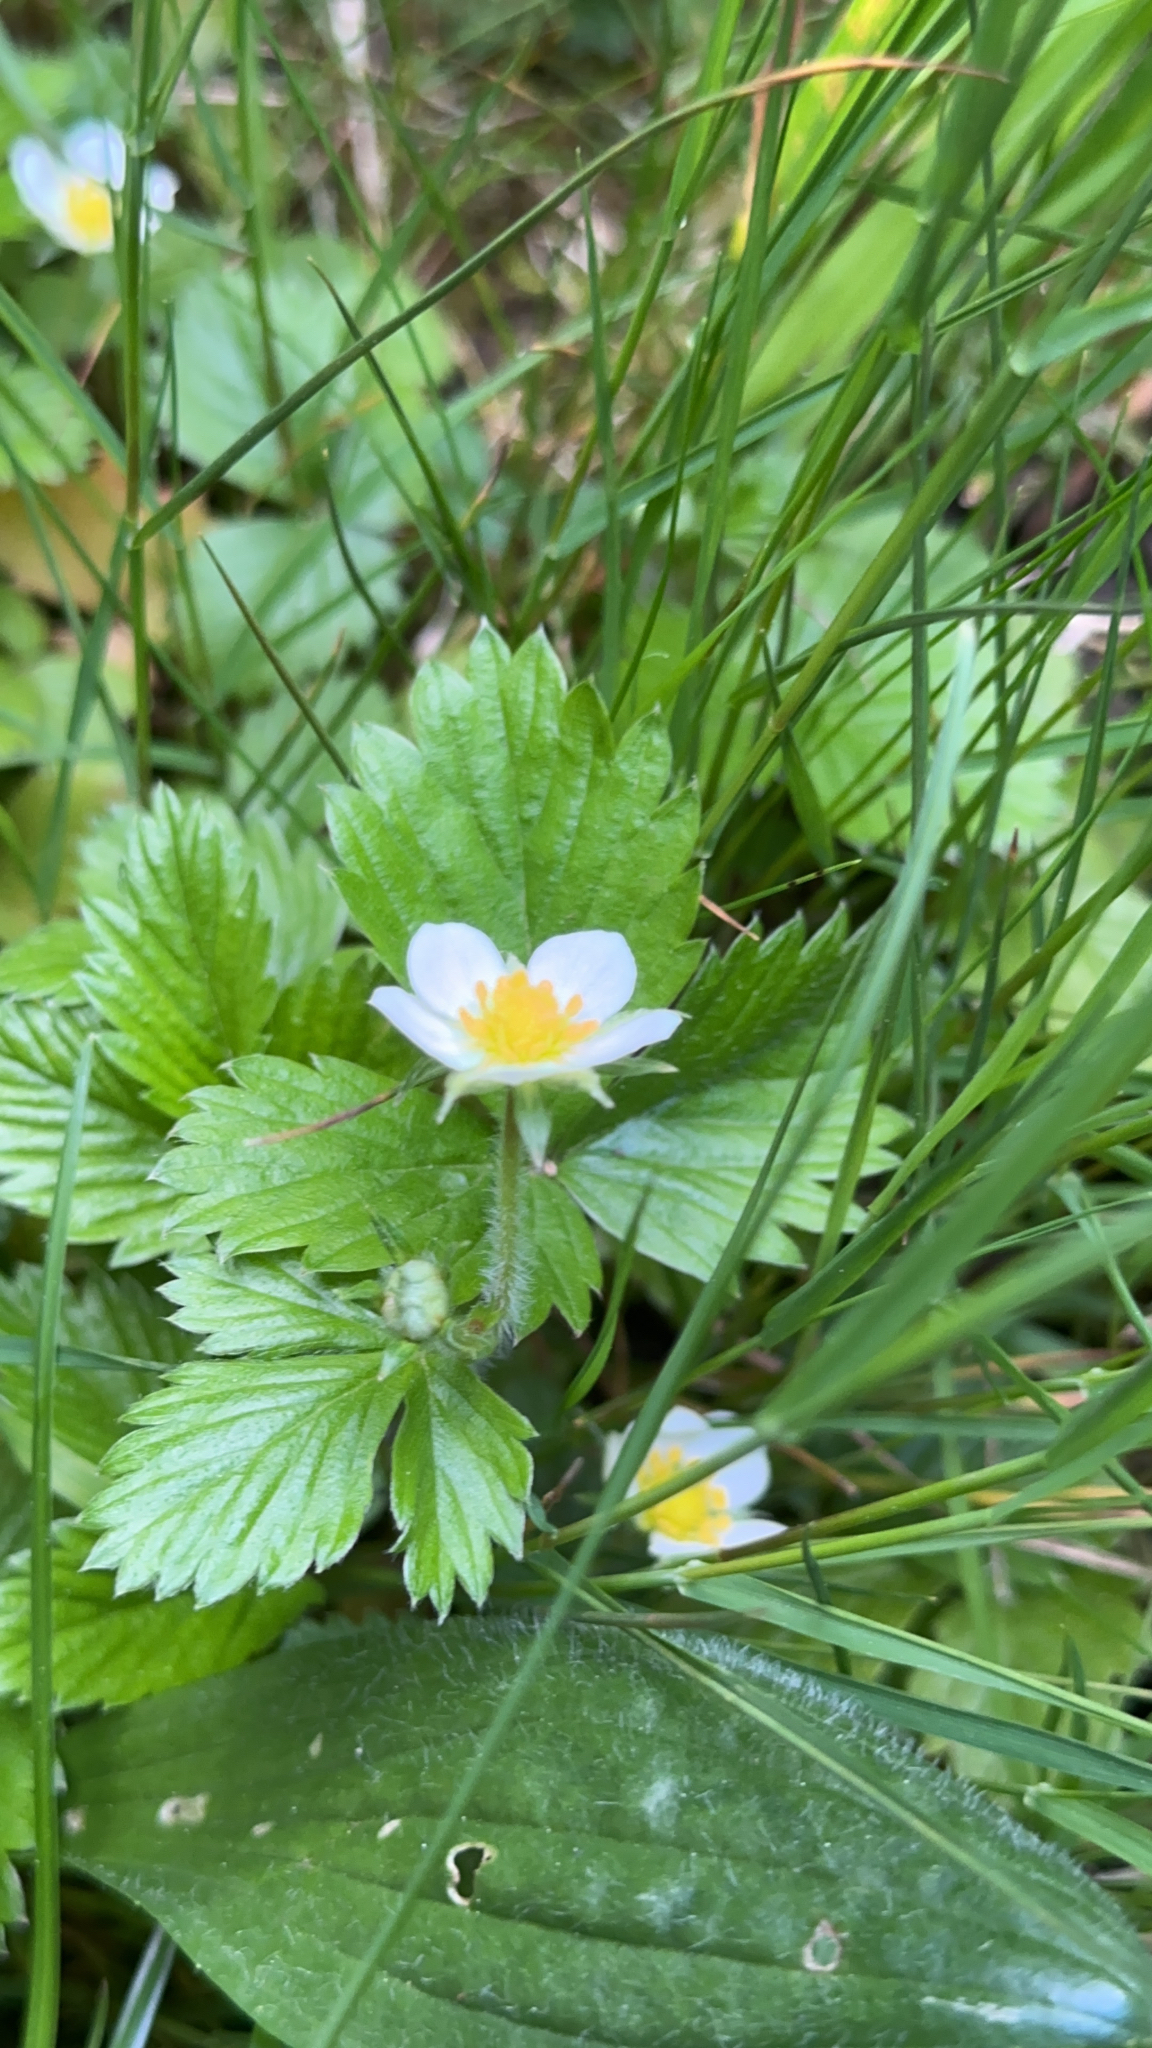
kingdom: Plantae
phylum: Tracheophyta
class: Magnoliopsida
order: Rosales
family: Rosaceae
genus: Fragaria
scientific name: Fragaria vesca
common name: Wild strawberry
